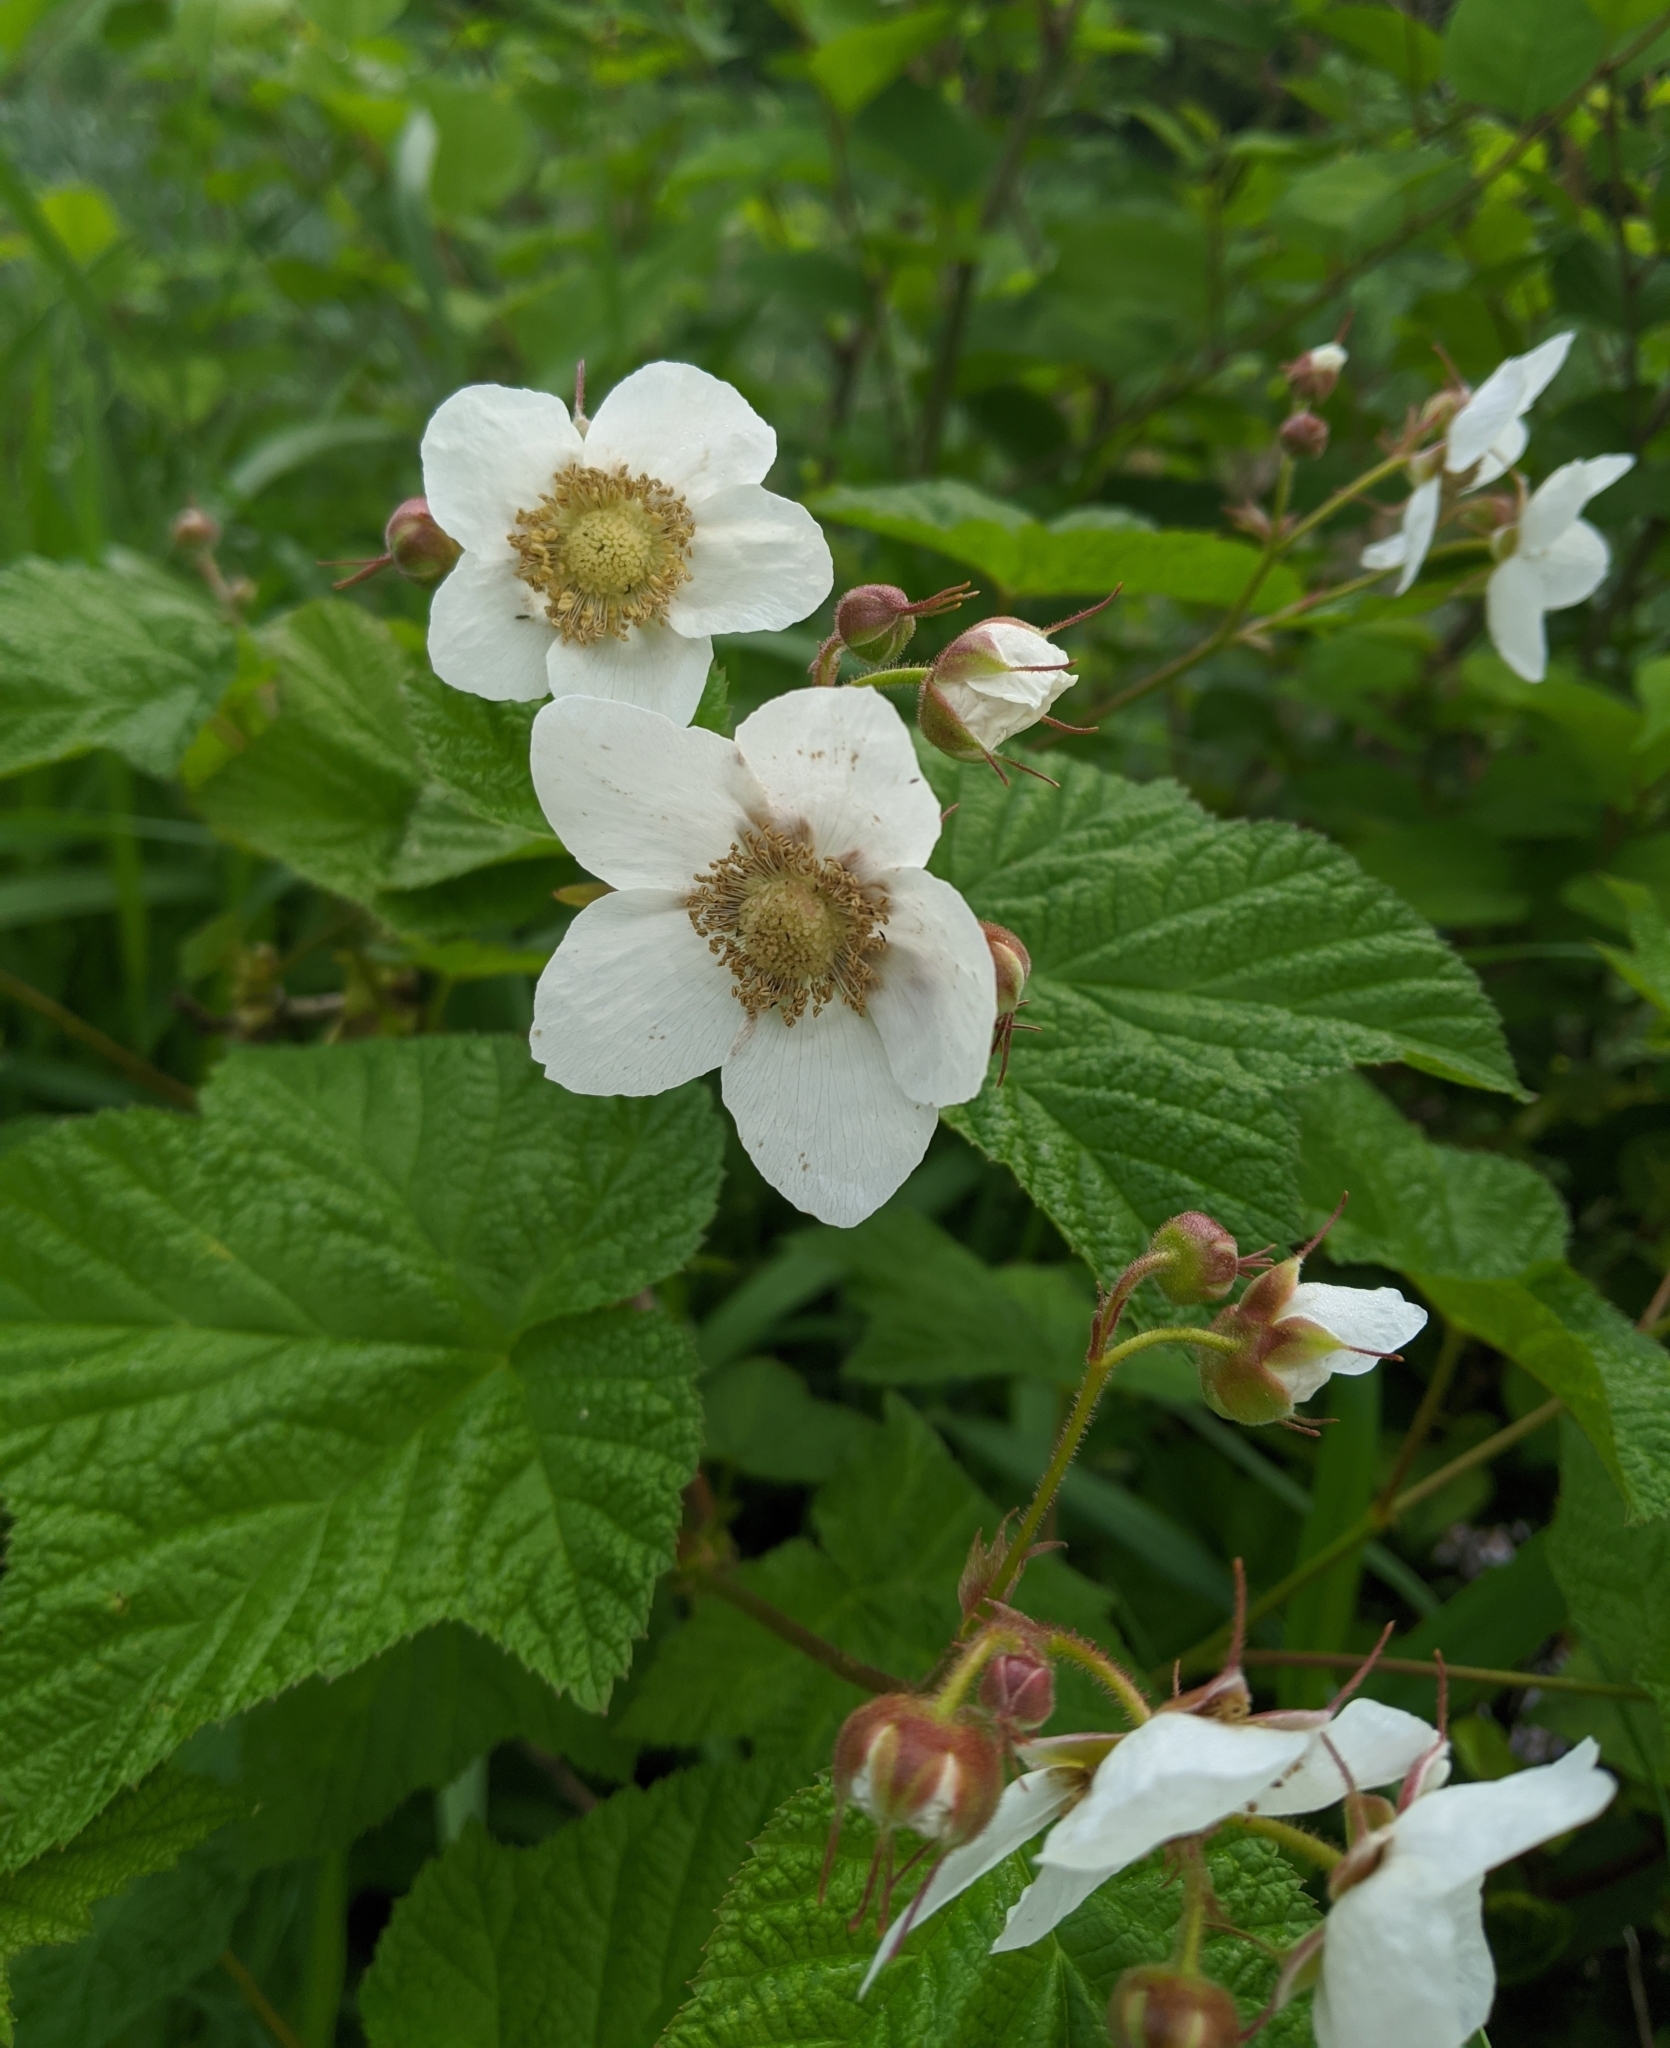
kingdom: Plantae
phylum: Tracheophyta
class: Magnoliopsida
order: Rosales
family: Rosaceae
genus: Rubus
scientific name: Rubus parviflorus
